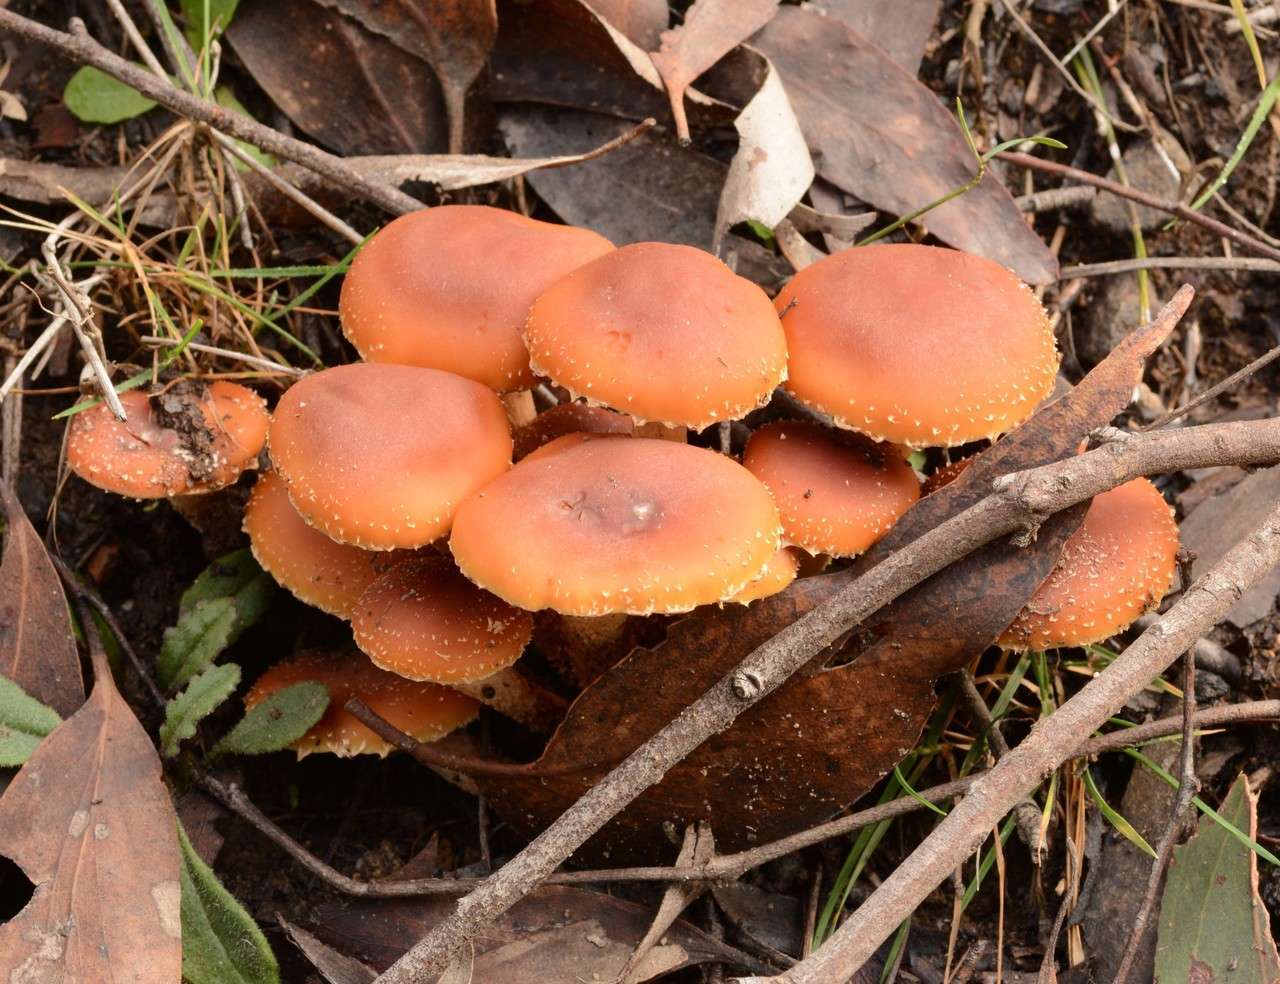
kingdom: Fungi
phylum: Basidiomycota
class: Agaricomycetes
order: Agaricales
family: Strophariaceae
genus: Hypholoma
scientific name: Hypholoma australianum
